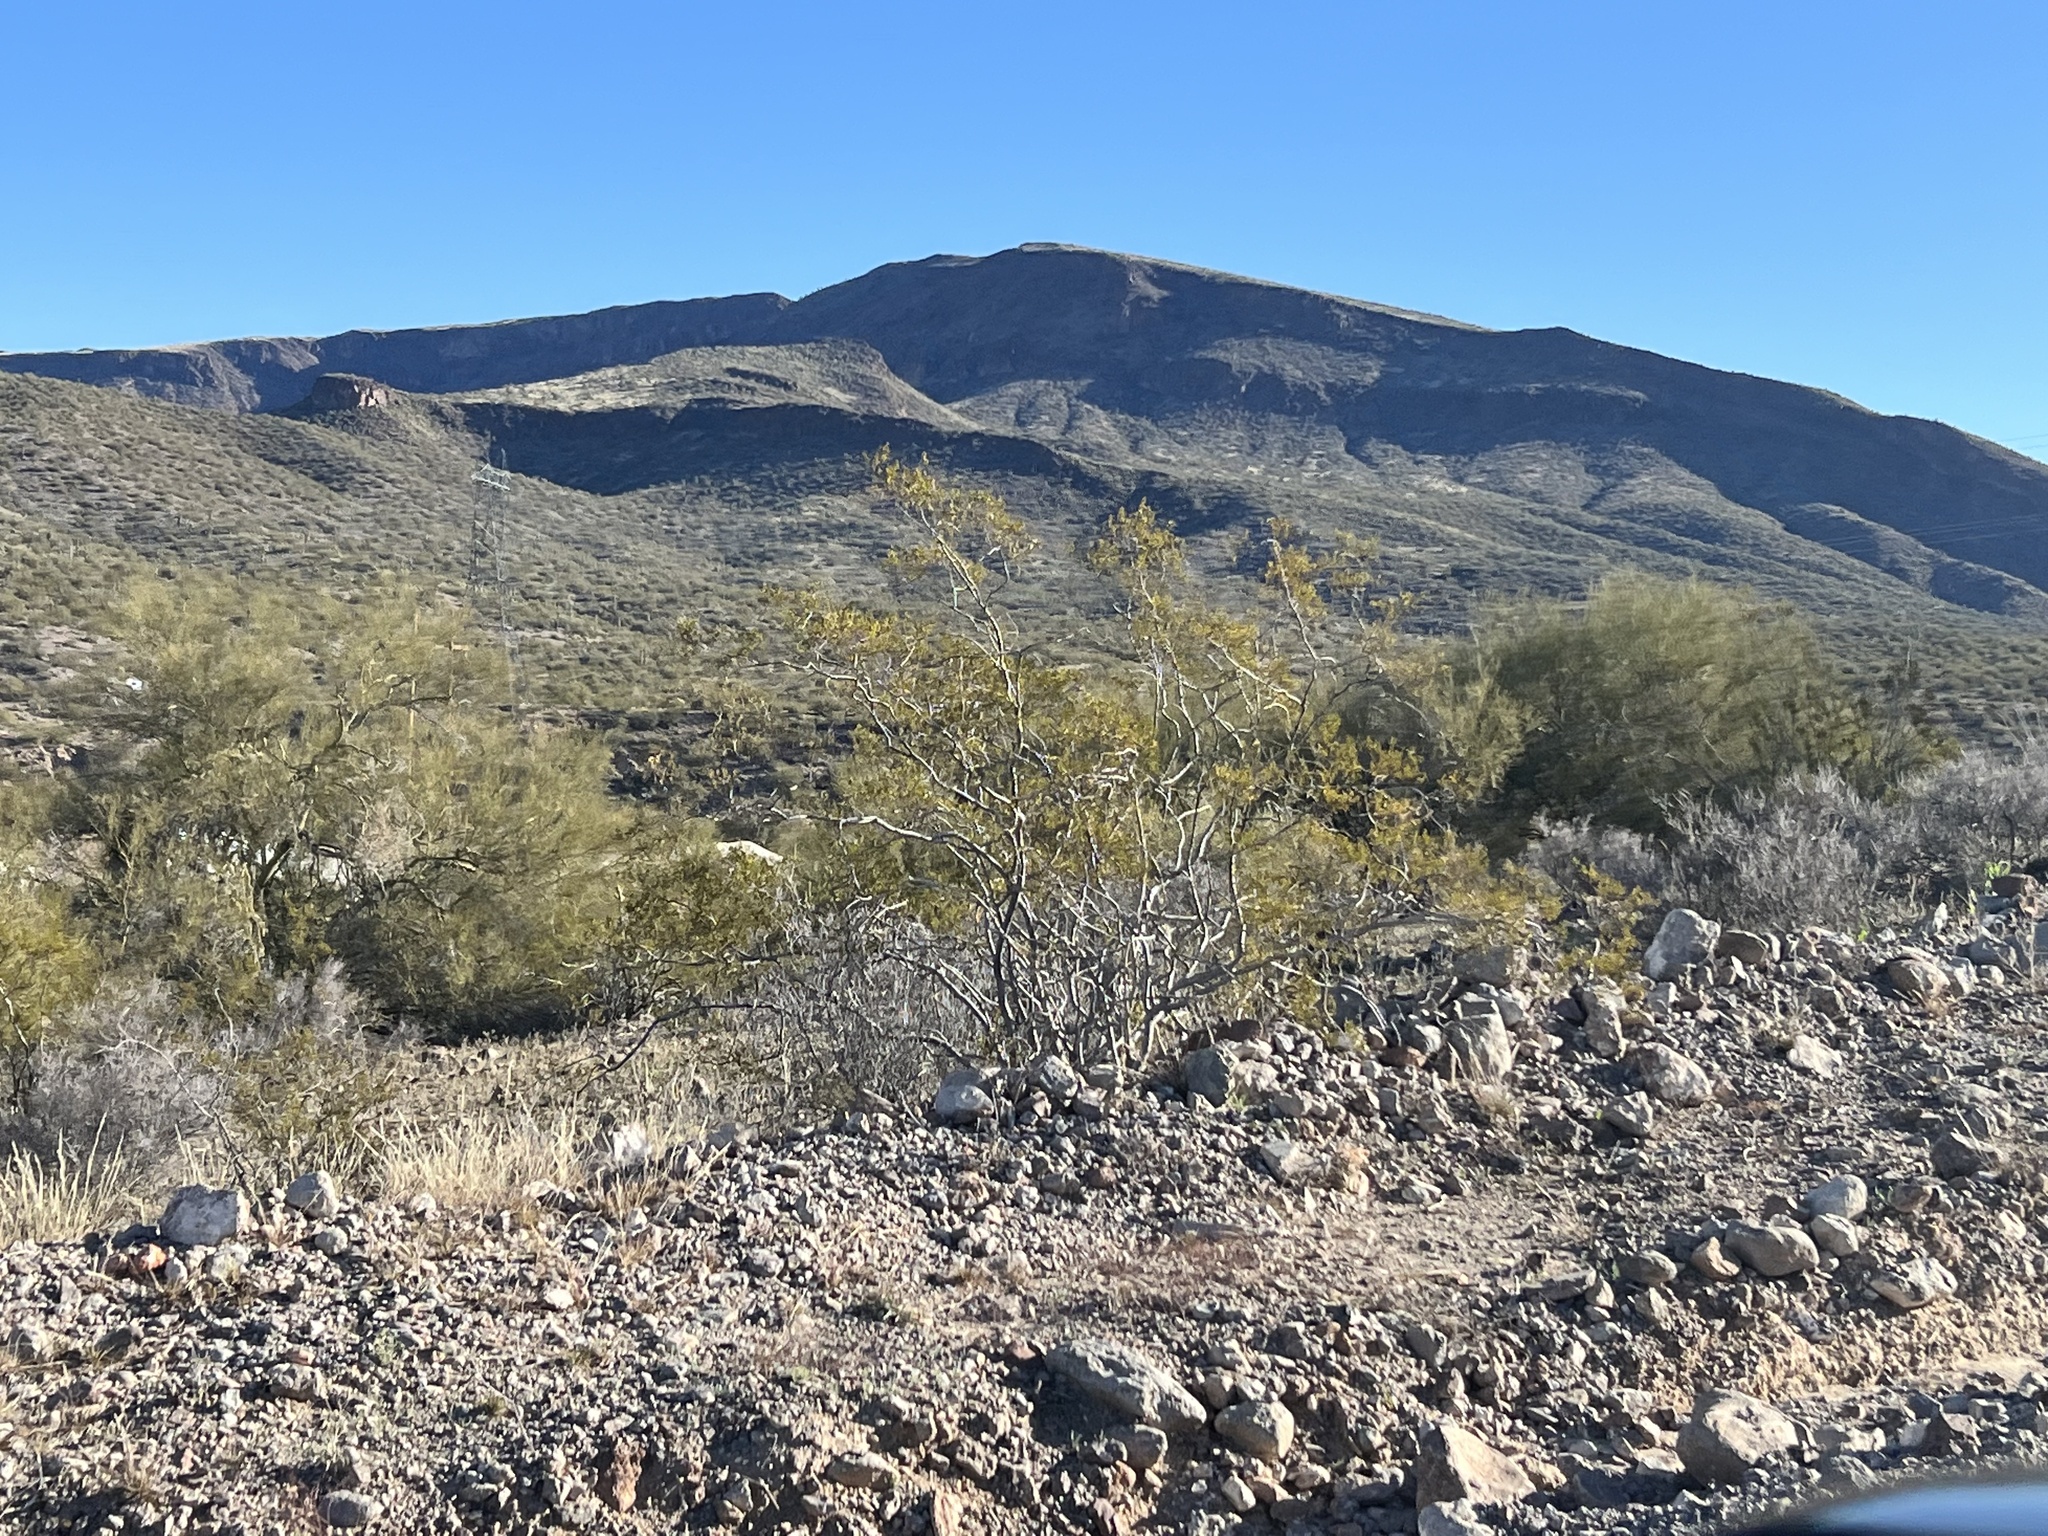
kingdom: Plantae
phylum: Tracheophyta
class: Magnoliopsida
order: Zygophyllales
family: Zygophyllaceae
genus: Larrea
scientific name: Larrea tridentata
